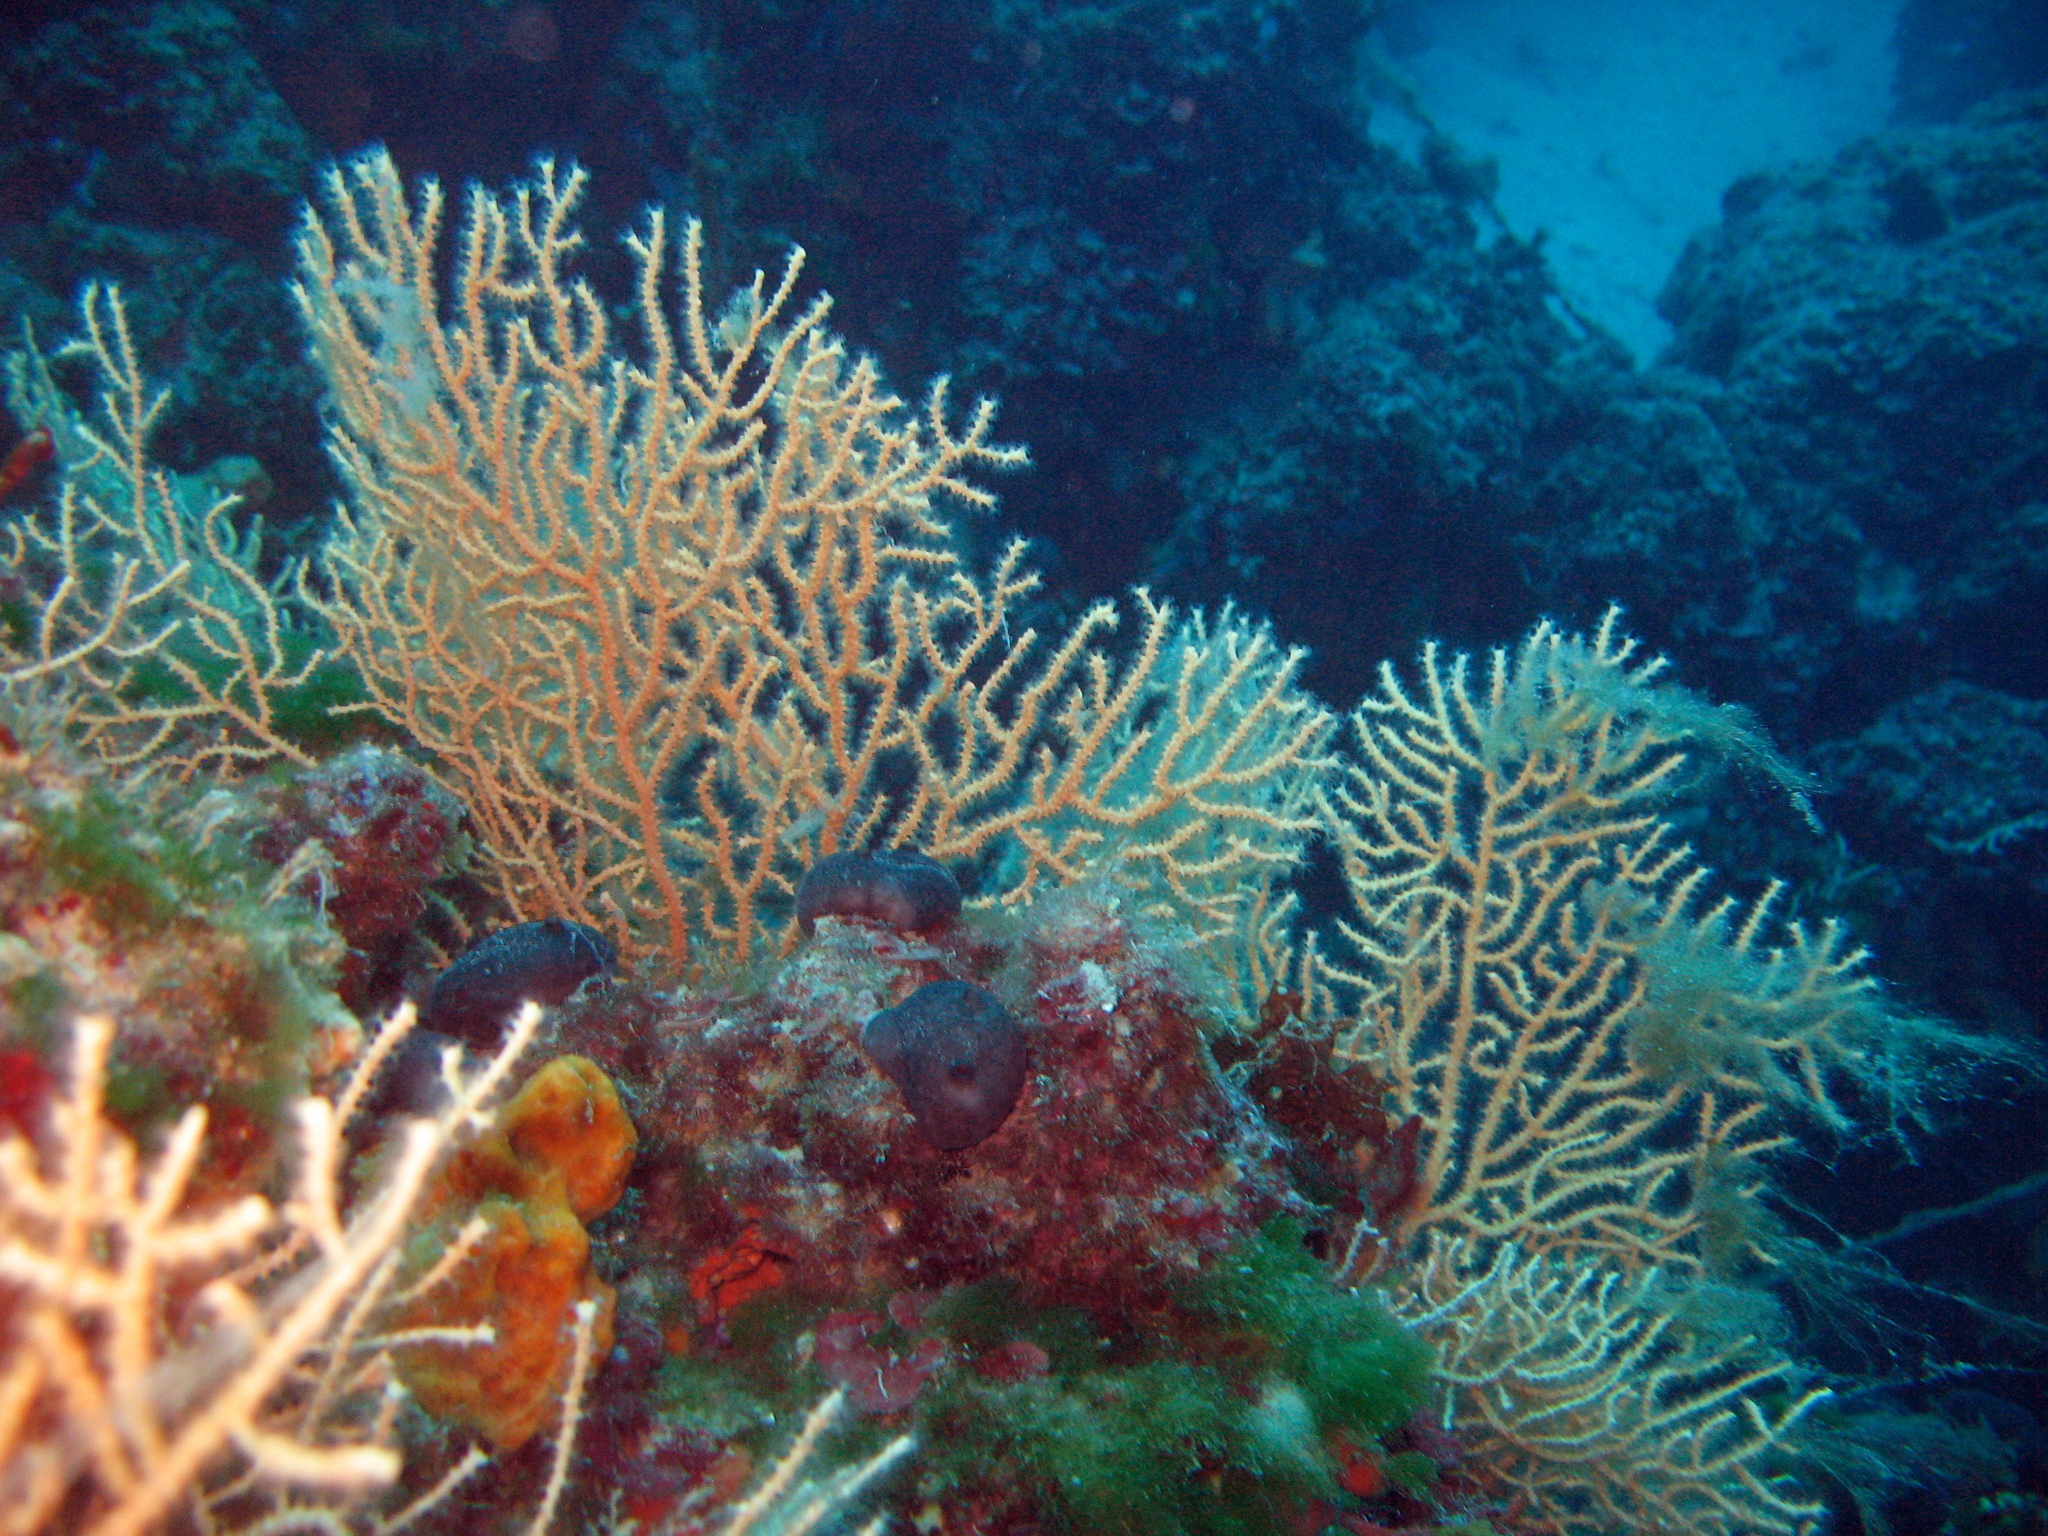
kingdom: Animalia
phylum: Cnidaria
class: Anthozoa
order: Malacalcyonacea
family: Eunicellidae
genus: Eunicella
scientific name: Eunicella cavolini
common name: Yellow gorgonian
